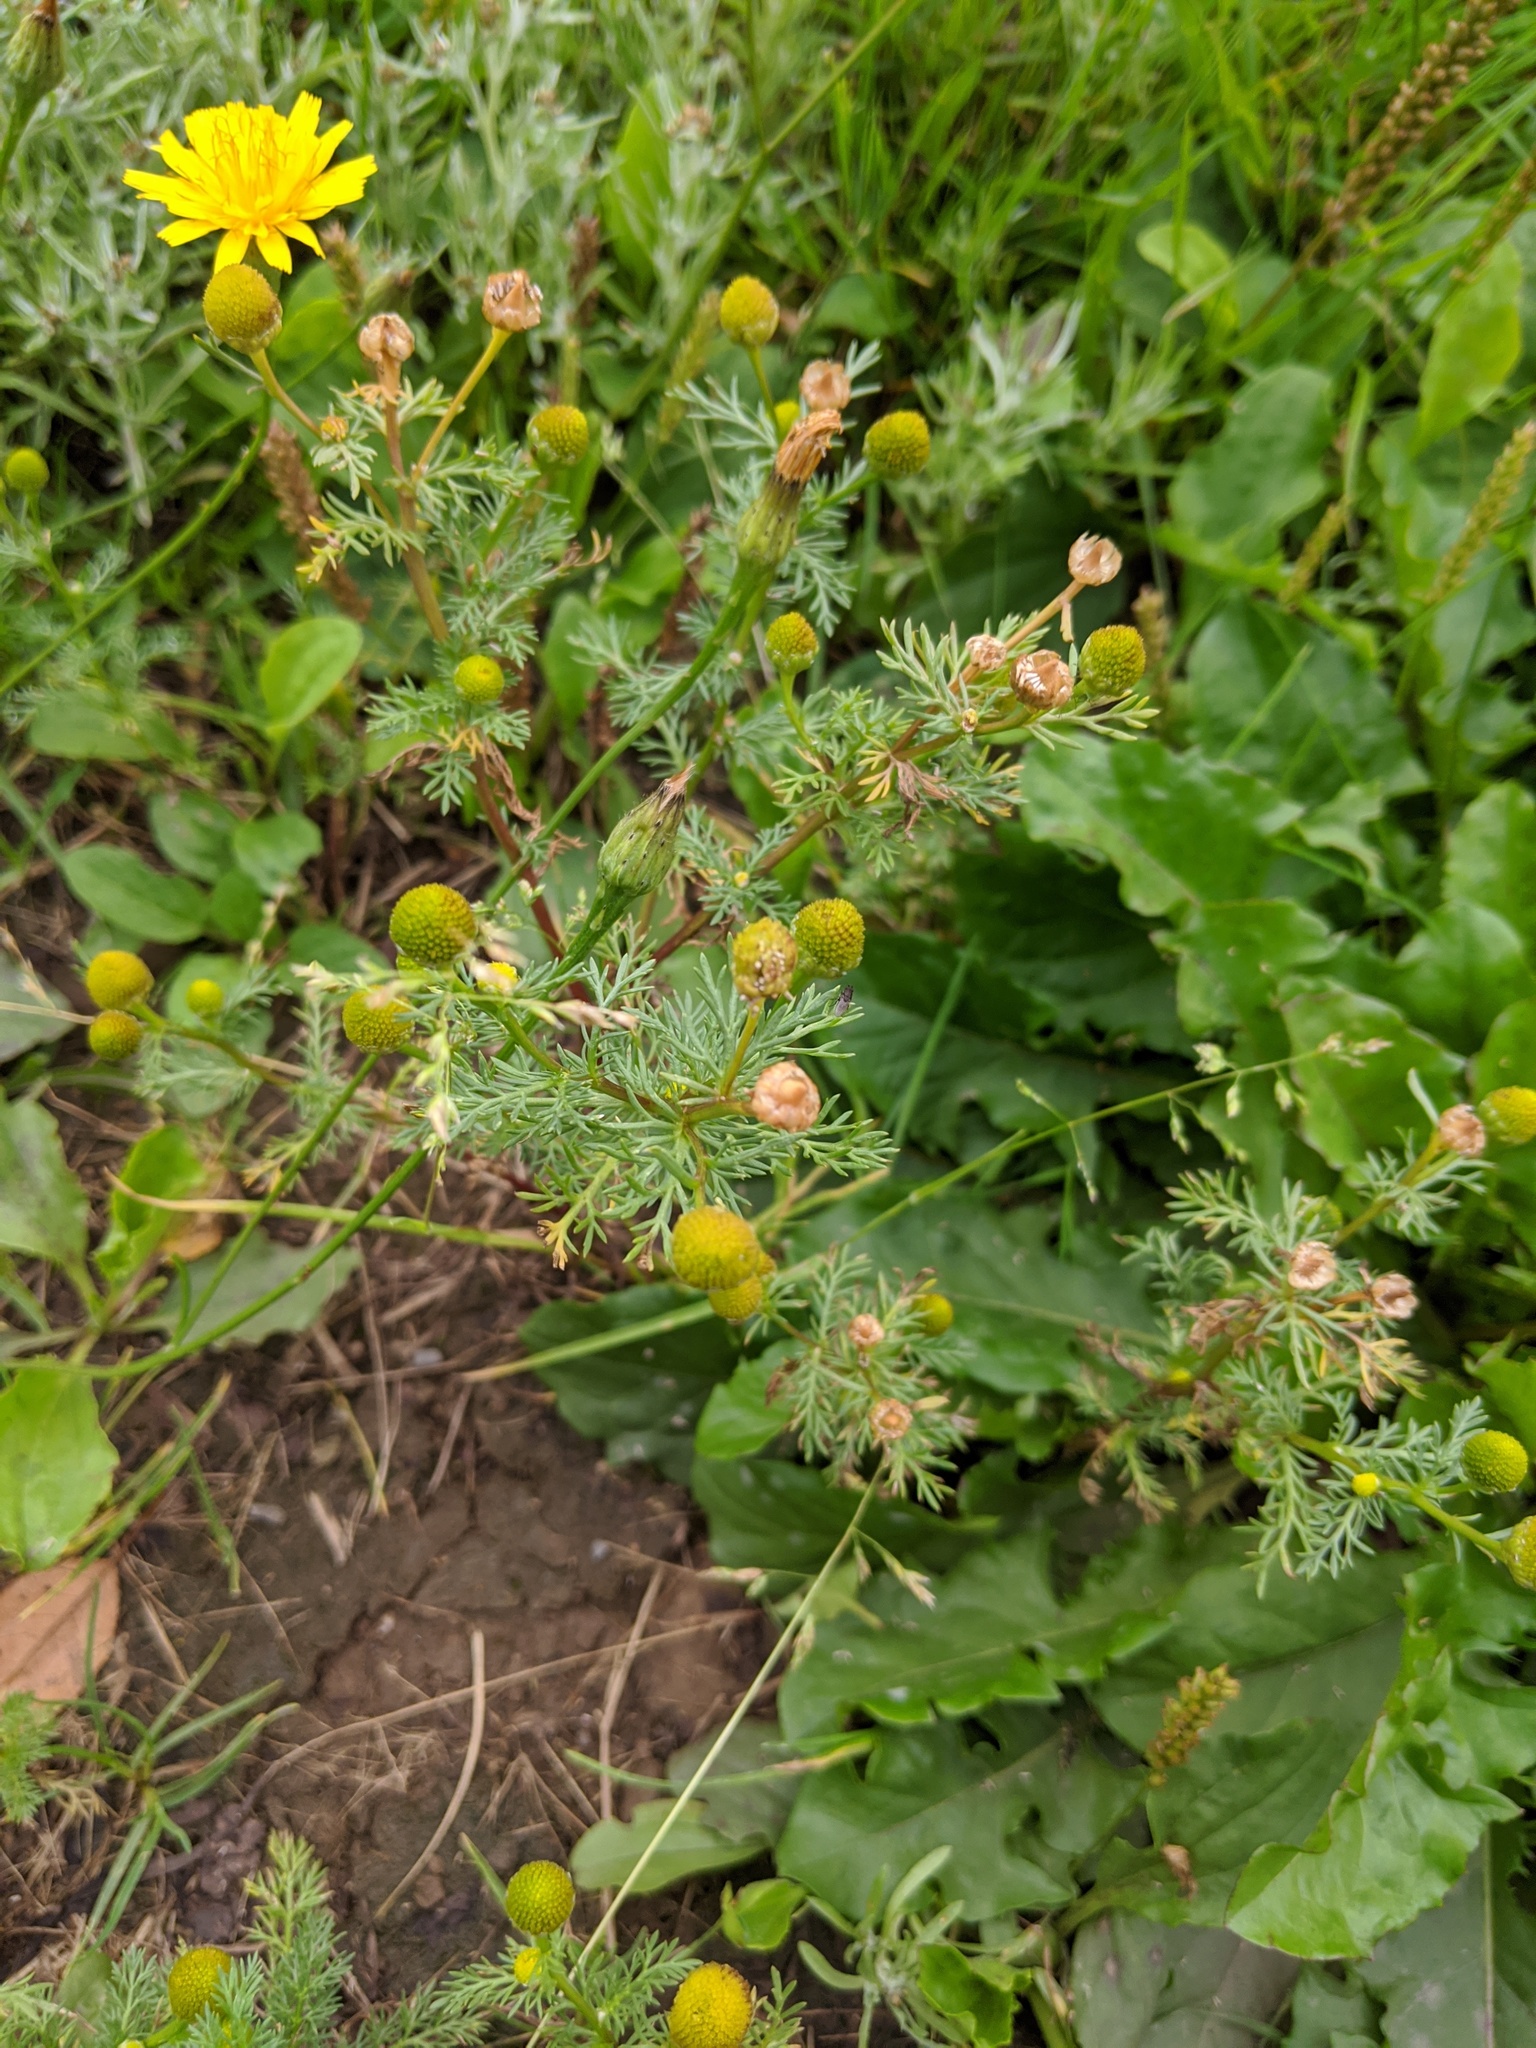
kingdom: Plantae
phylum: Tracheophyta
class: Magnoliopsida
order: Asterales
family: Asteraceae
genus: Matricaria
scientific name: Matricaria discoidea
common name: Disc mayweed
